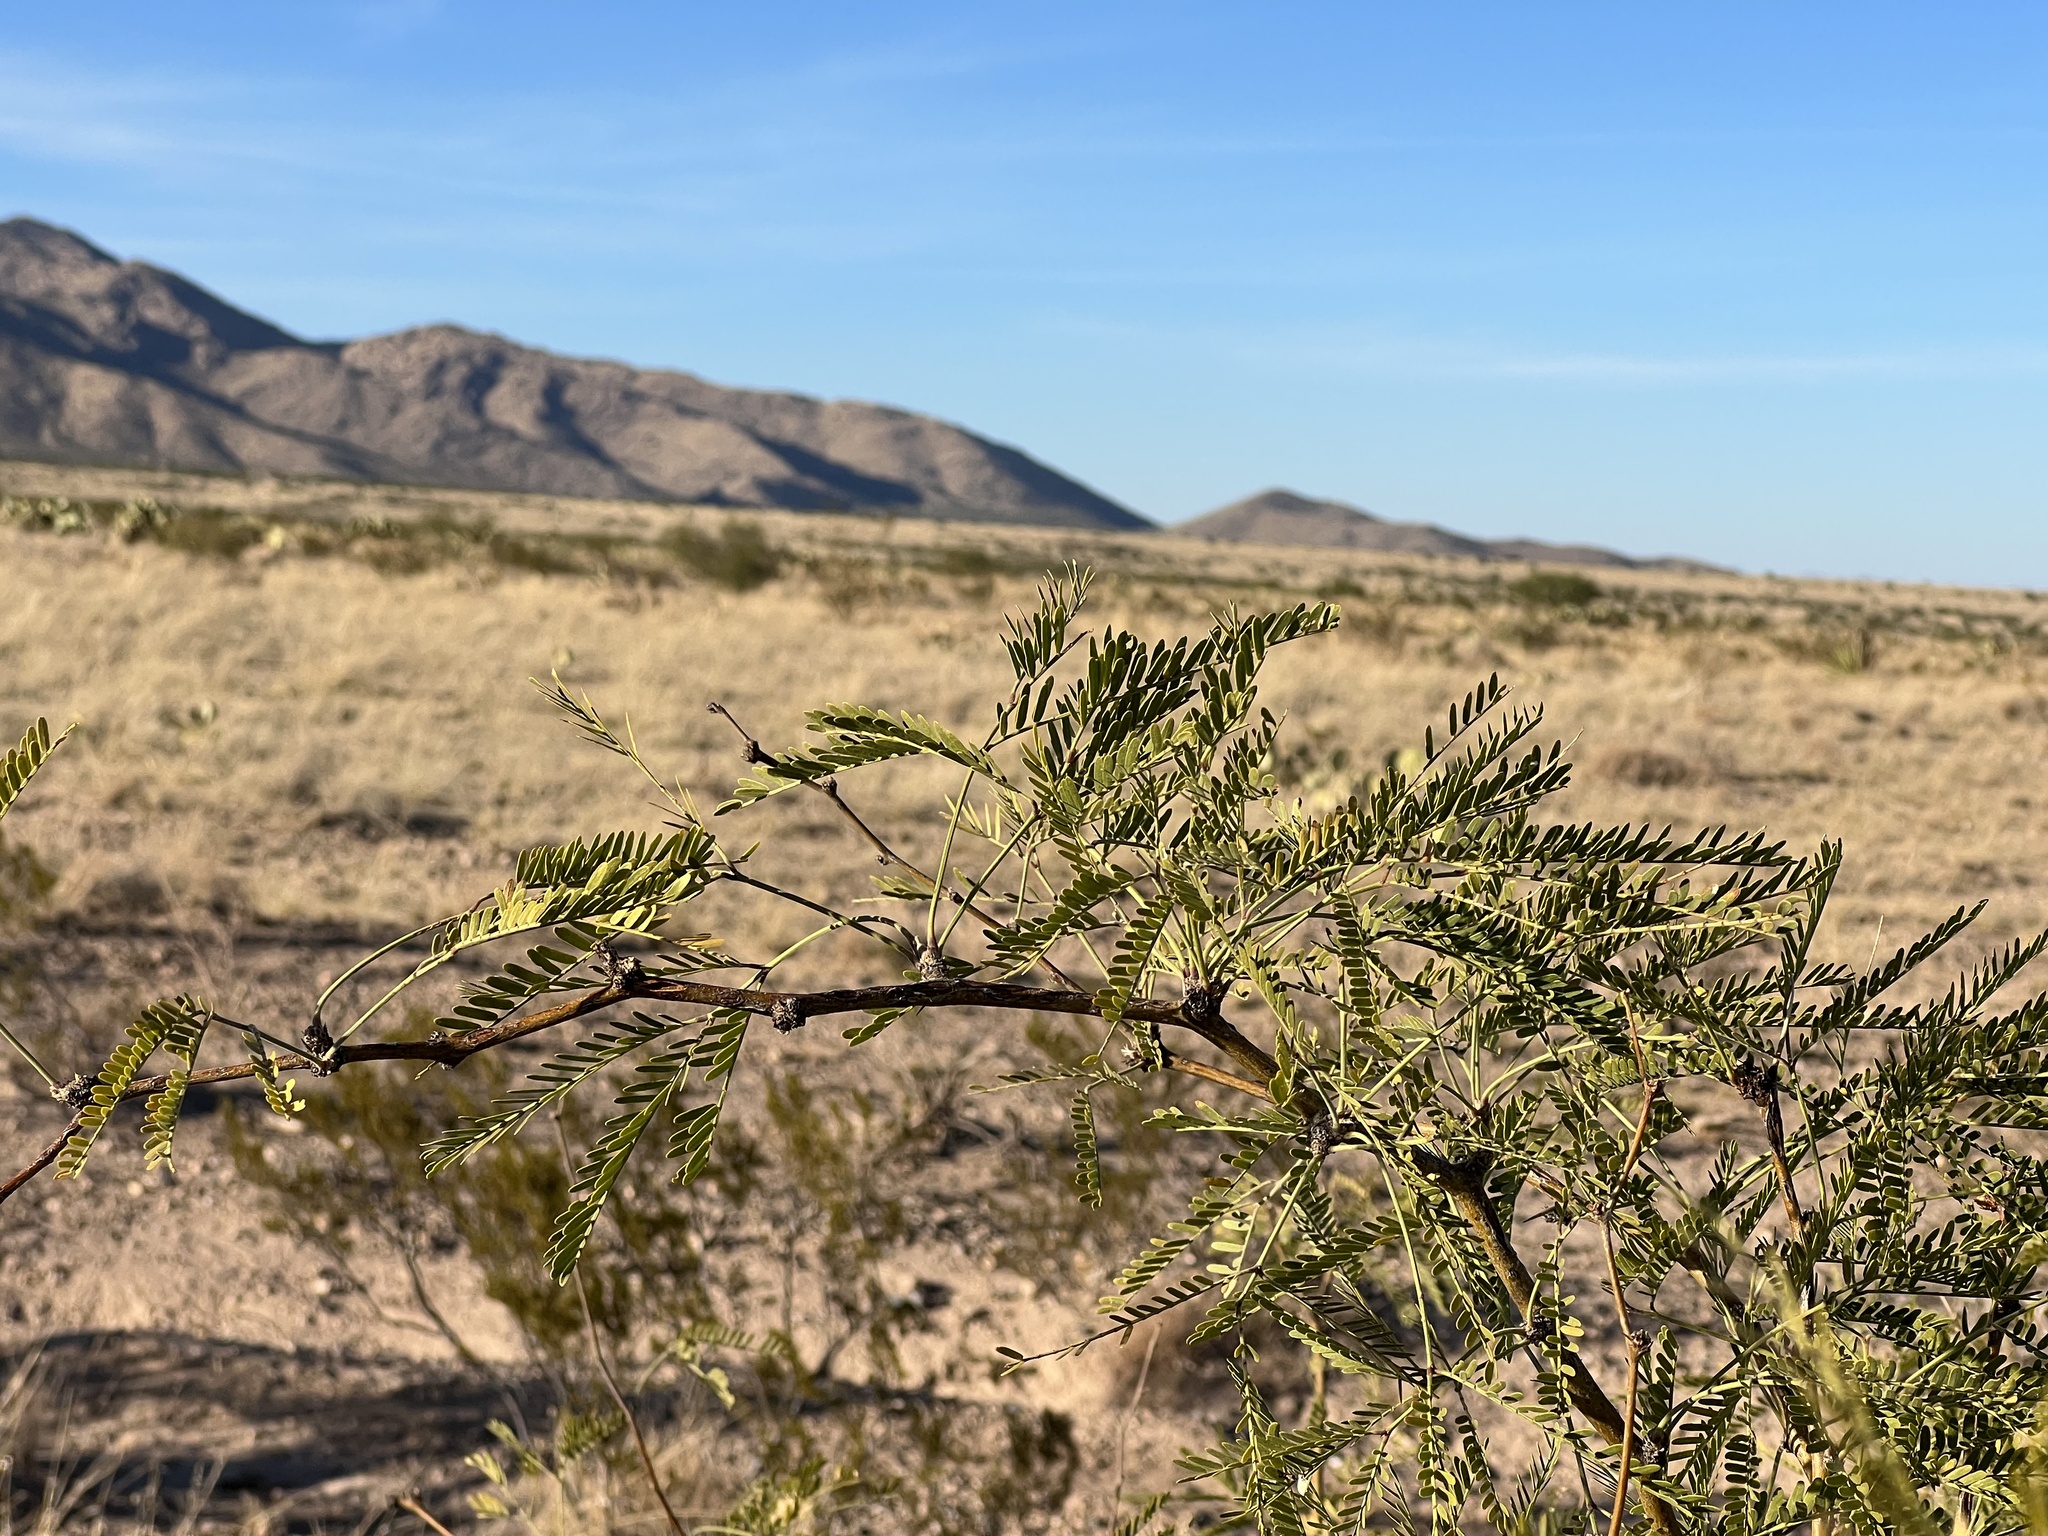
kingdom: Plantae
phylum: Tracheophyta
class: Magnoliopsida
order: Fabales
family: Fabaceae
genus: Prosopis
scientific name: Prosopis velutina
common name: Velvet mesquite
